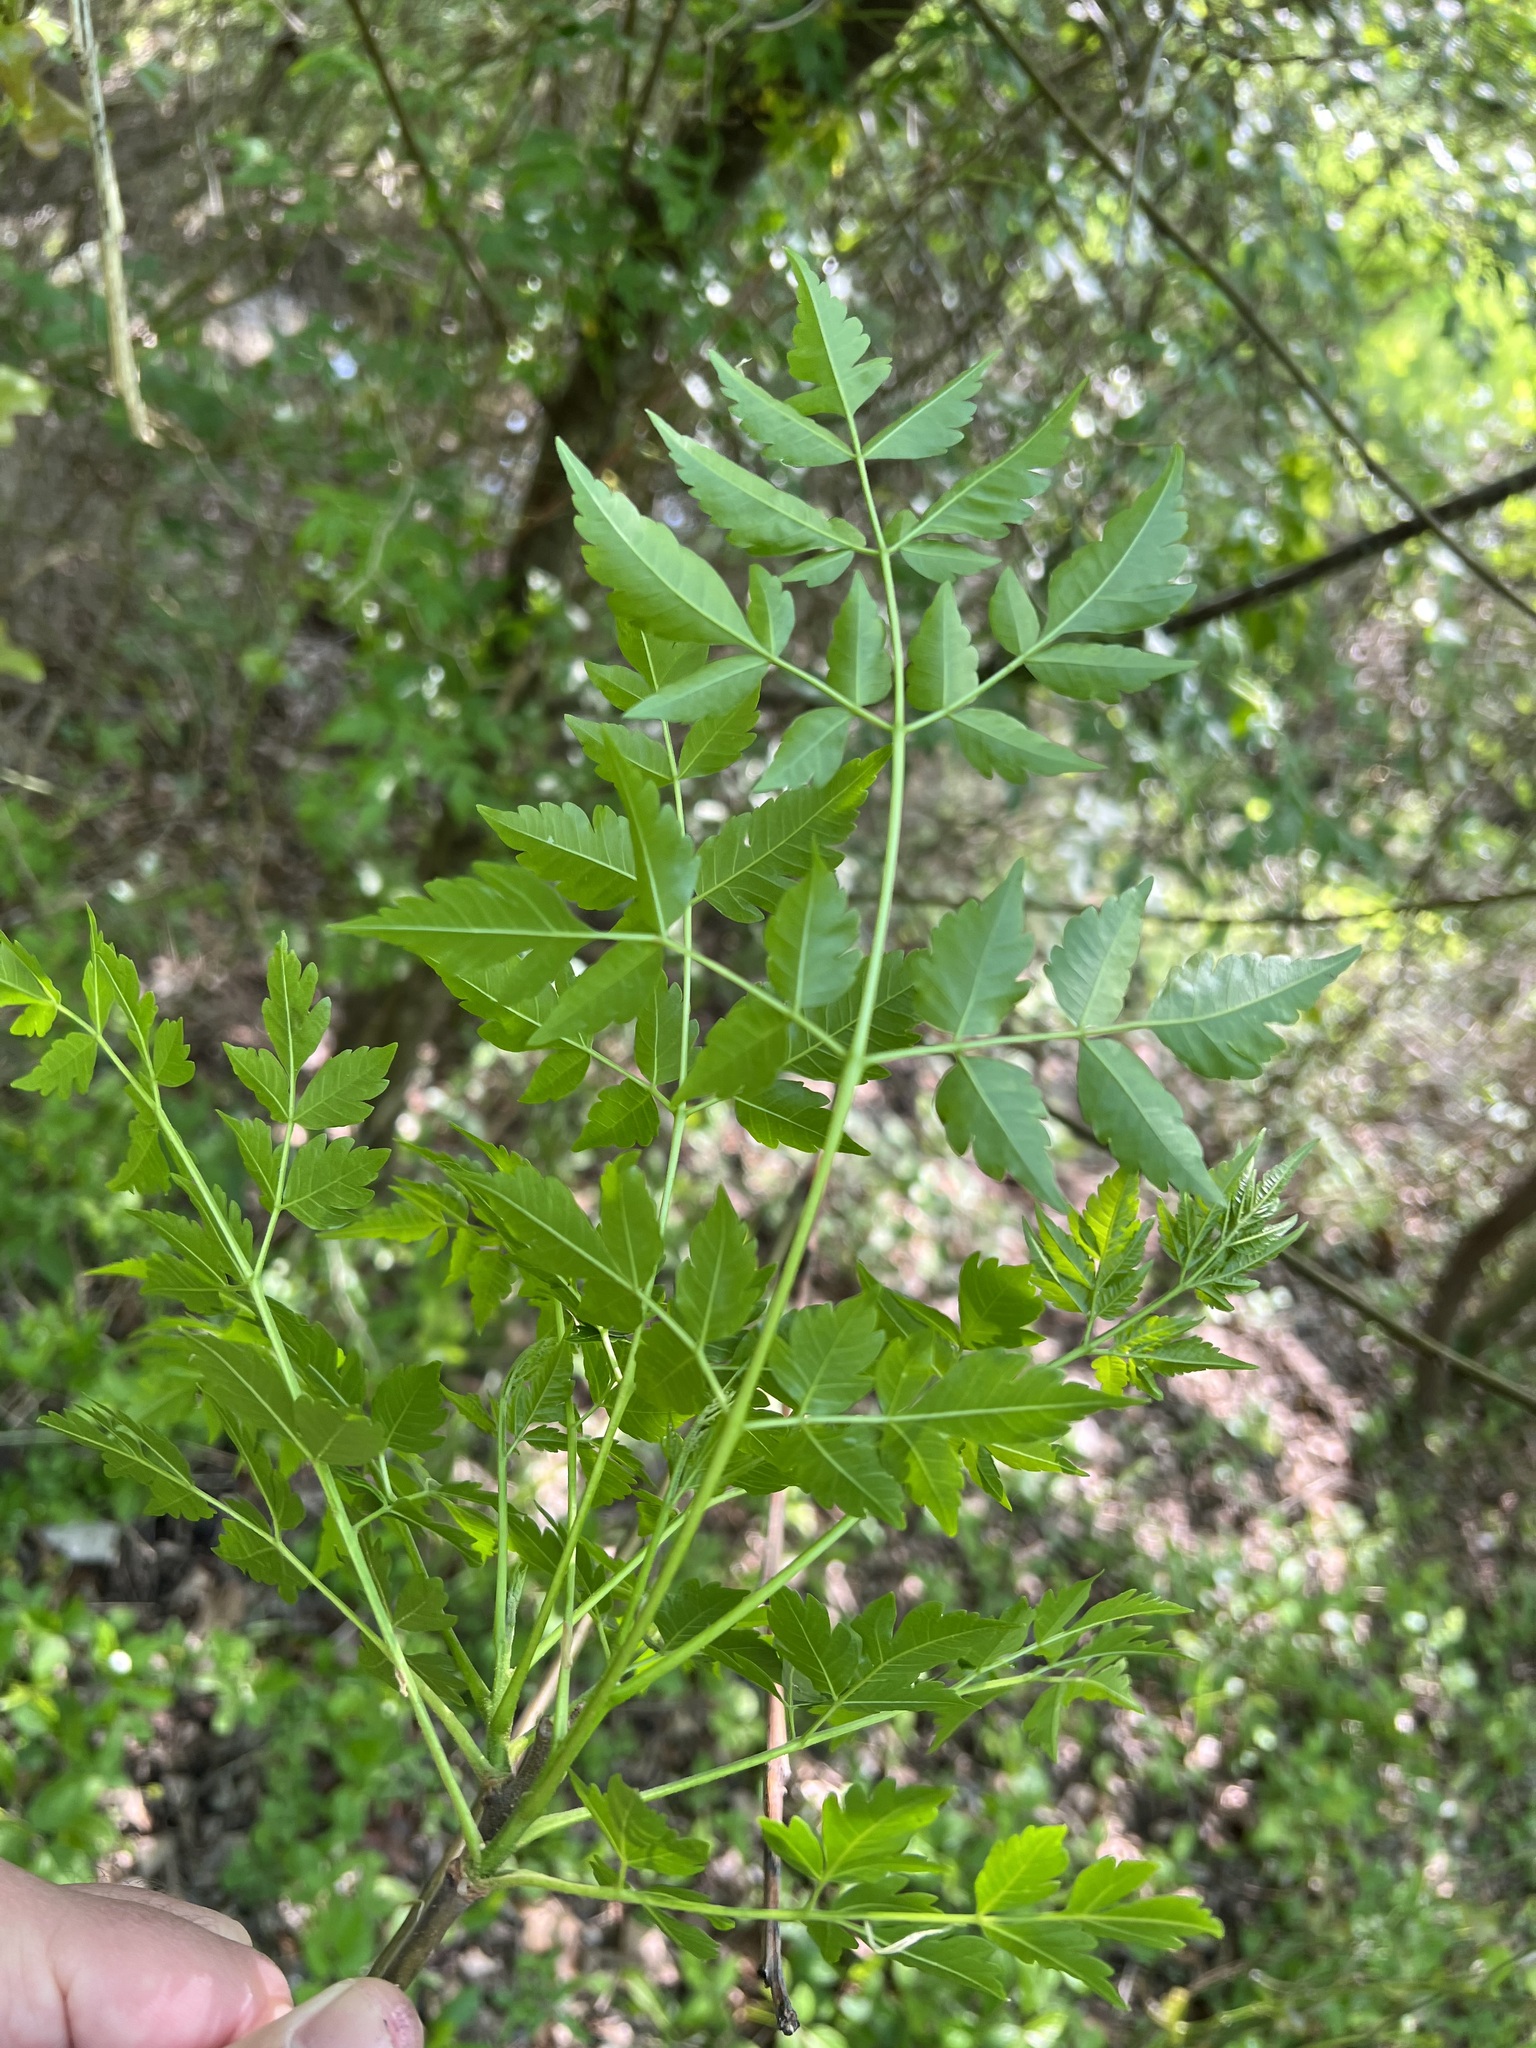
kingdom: Plantae
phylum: Tracheophyta
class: Magnoliopsida
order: Sapindales
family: Meliaceae
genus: Melia
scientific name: Melia azedarach
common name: Chinaberrytree
